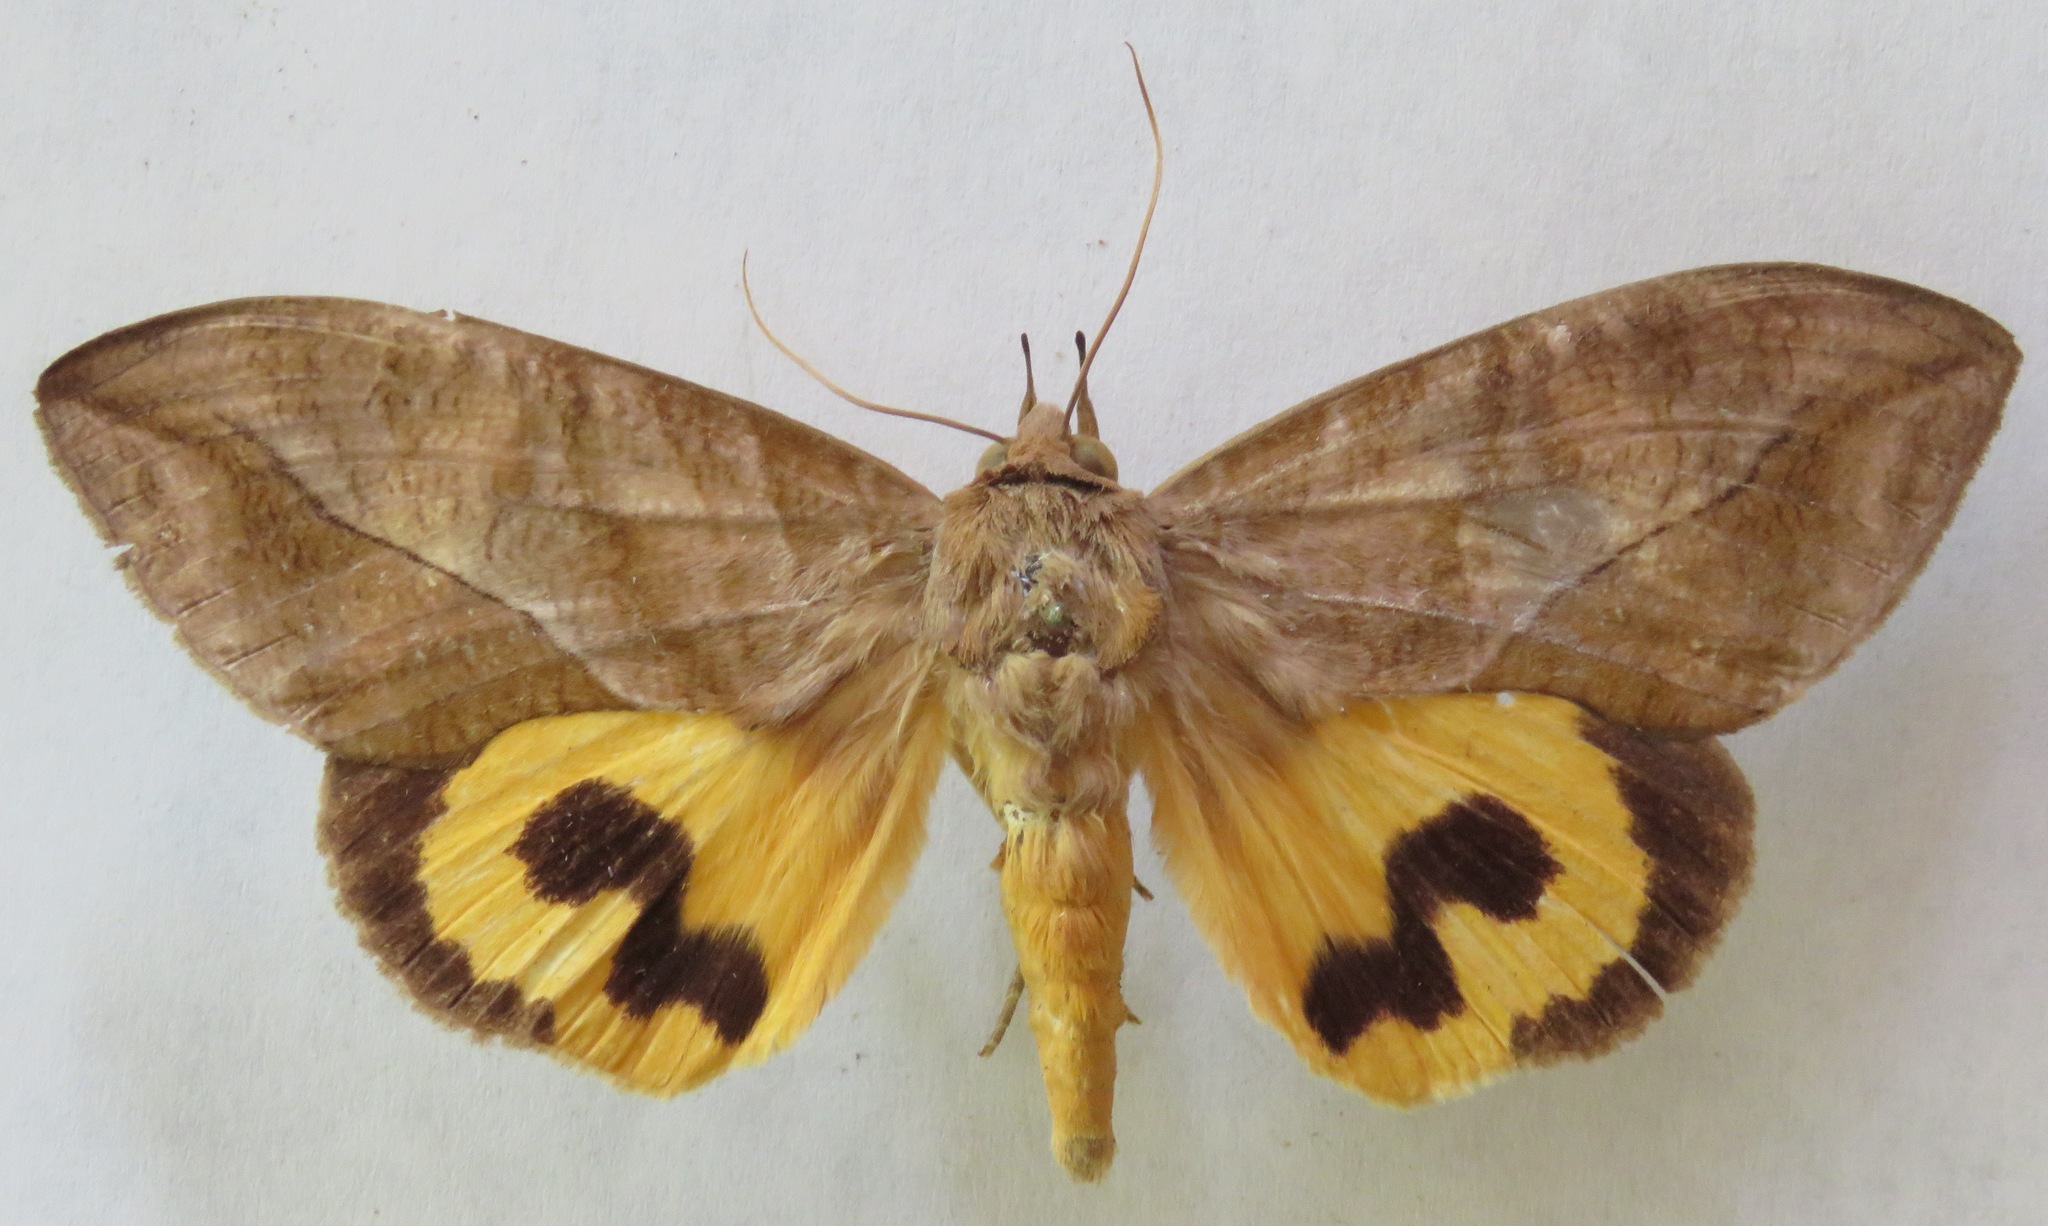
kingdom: Animalia
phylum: Arthropoda
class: Insecta
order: Lepidoptera
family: Erebidae
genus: Eudocima
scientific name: Eudocima serpentifera
